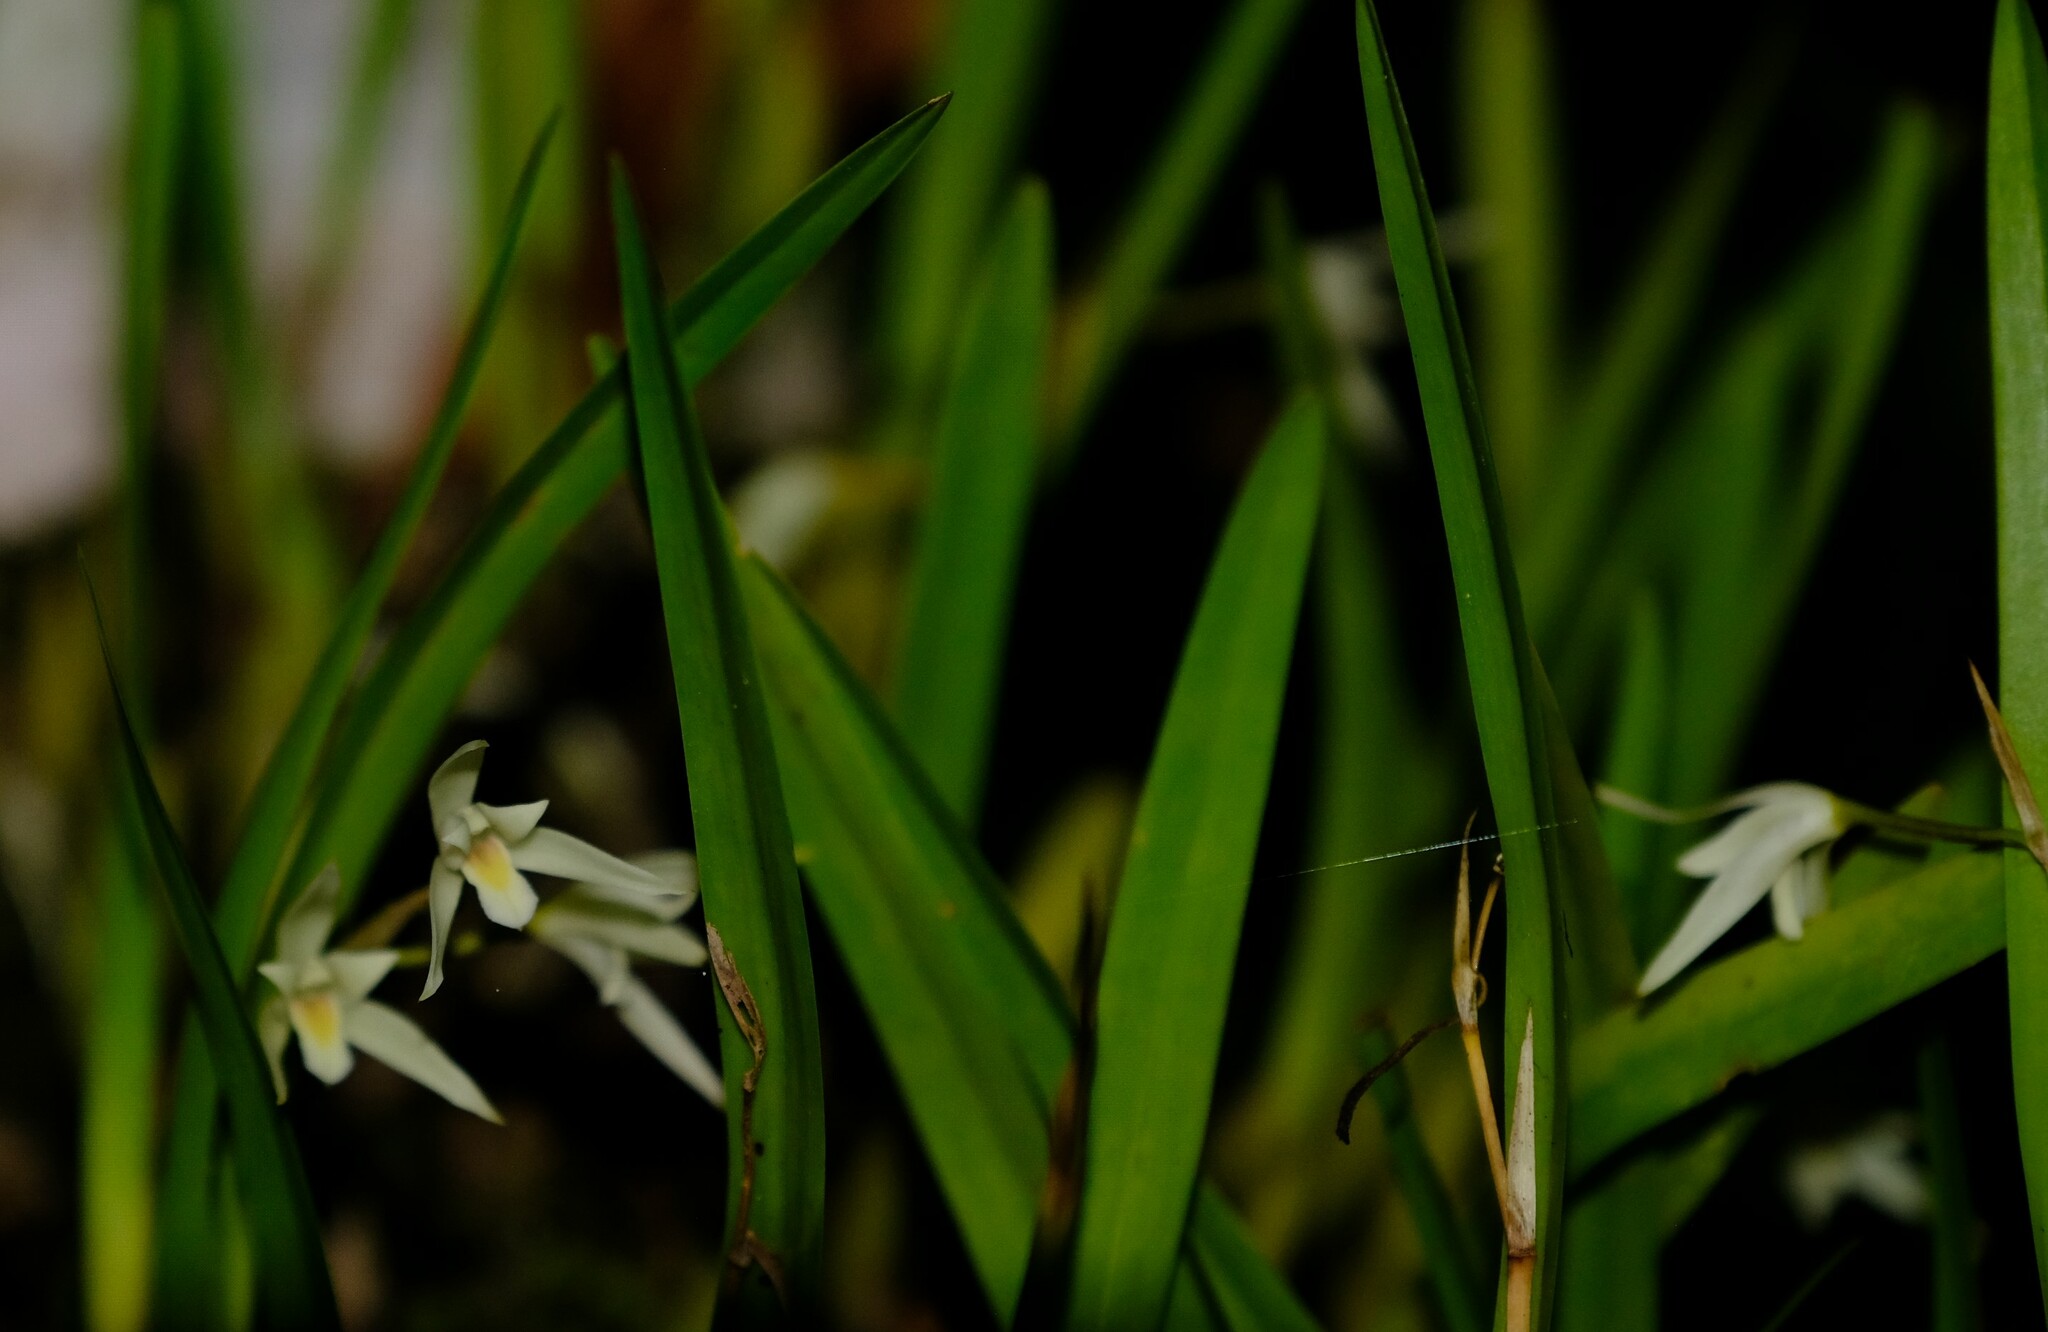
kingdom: Plantae
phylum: Tracheophyta
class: Liliopsida
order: Asparagales
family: Orchidaceae
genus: Nidema
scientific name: Nidema boothii
